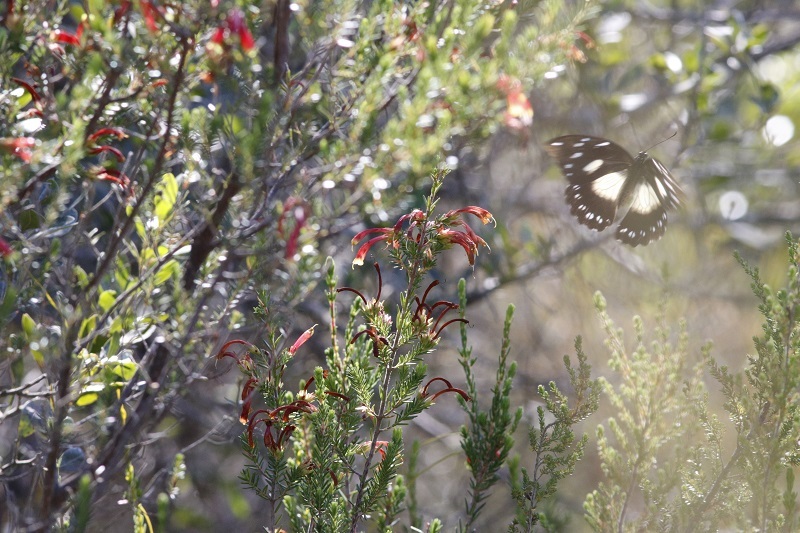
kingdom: Animalia
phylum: Arthropoda
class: Insecta
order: Lepidoptera
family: Papilionidae
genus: Papilio
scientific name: Papilio dardanus
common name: Flying handkerchief
